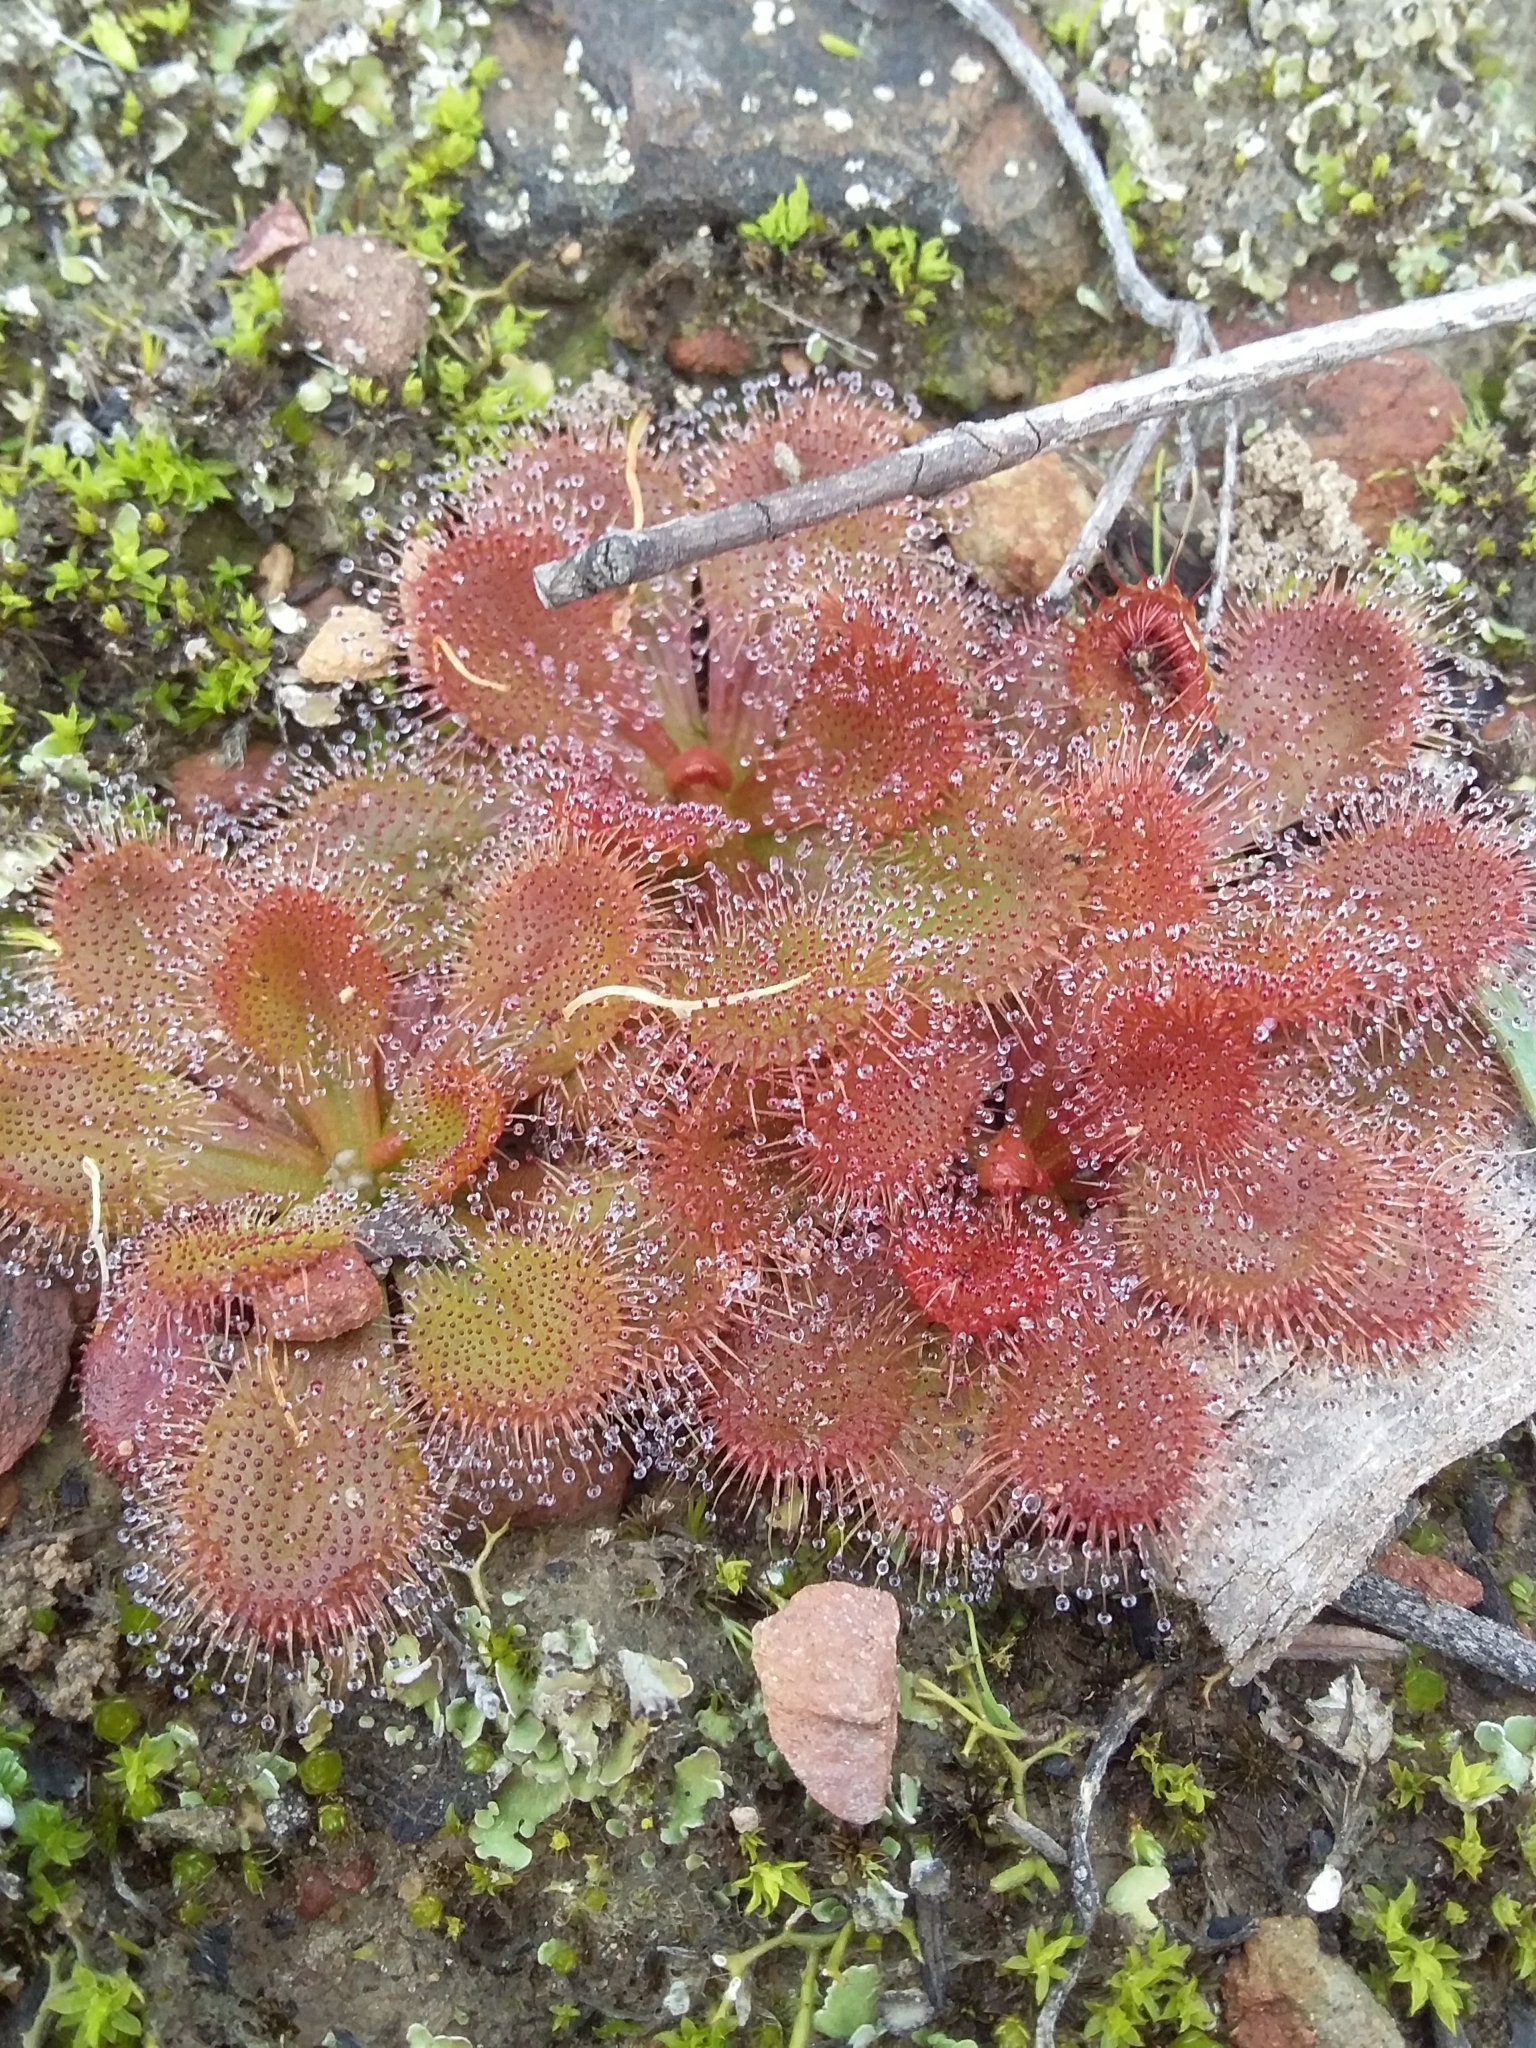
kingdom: Plantae
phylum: Tracheophyta
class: Magnoliopsida
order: Caryophyllales
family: Droseraceae
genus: Drosera
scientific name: Drosera whittakeri
